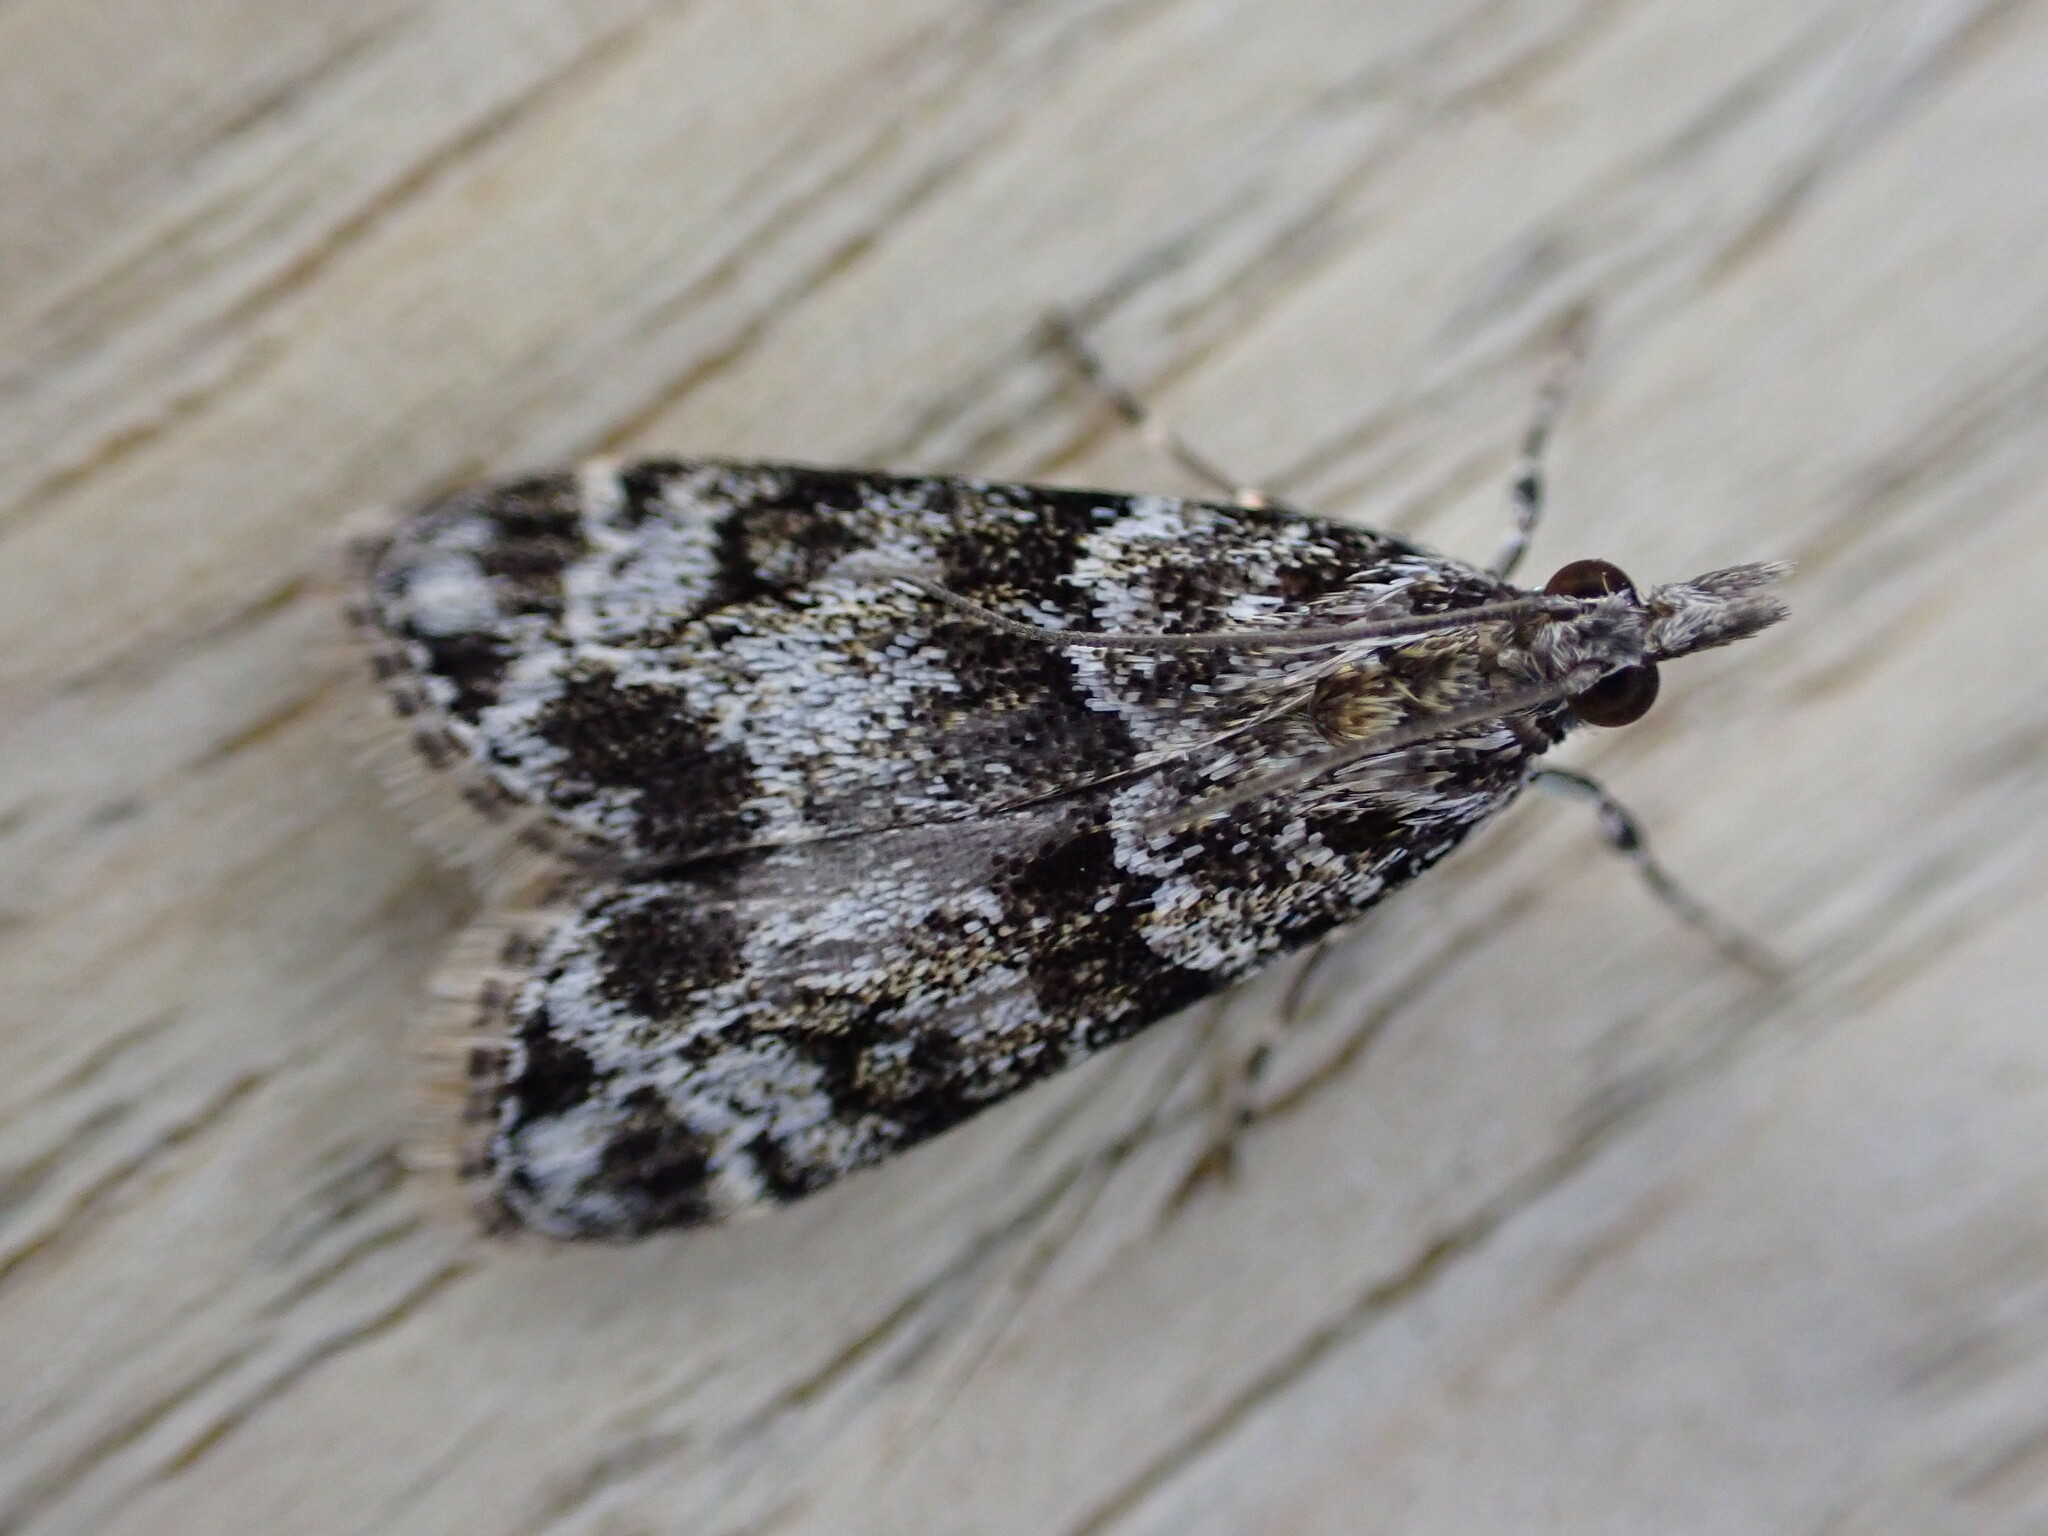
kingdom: Animalia
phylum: Arthropoda
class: Insecta
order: Lepidoptera
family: Crambidae
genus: Eudonia
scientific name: Eudonia mercurella
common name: Small grey
